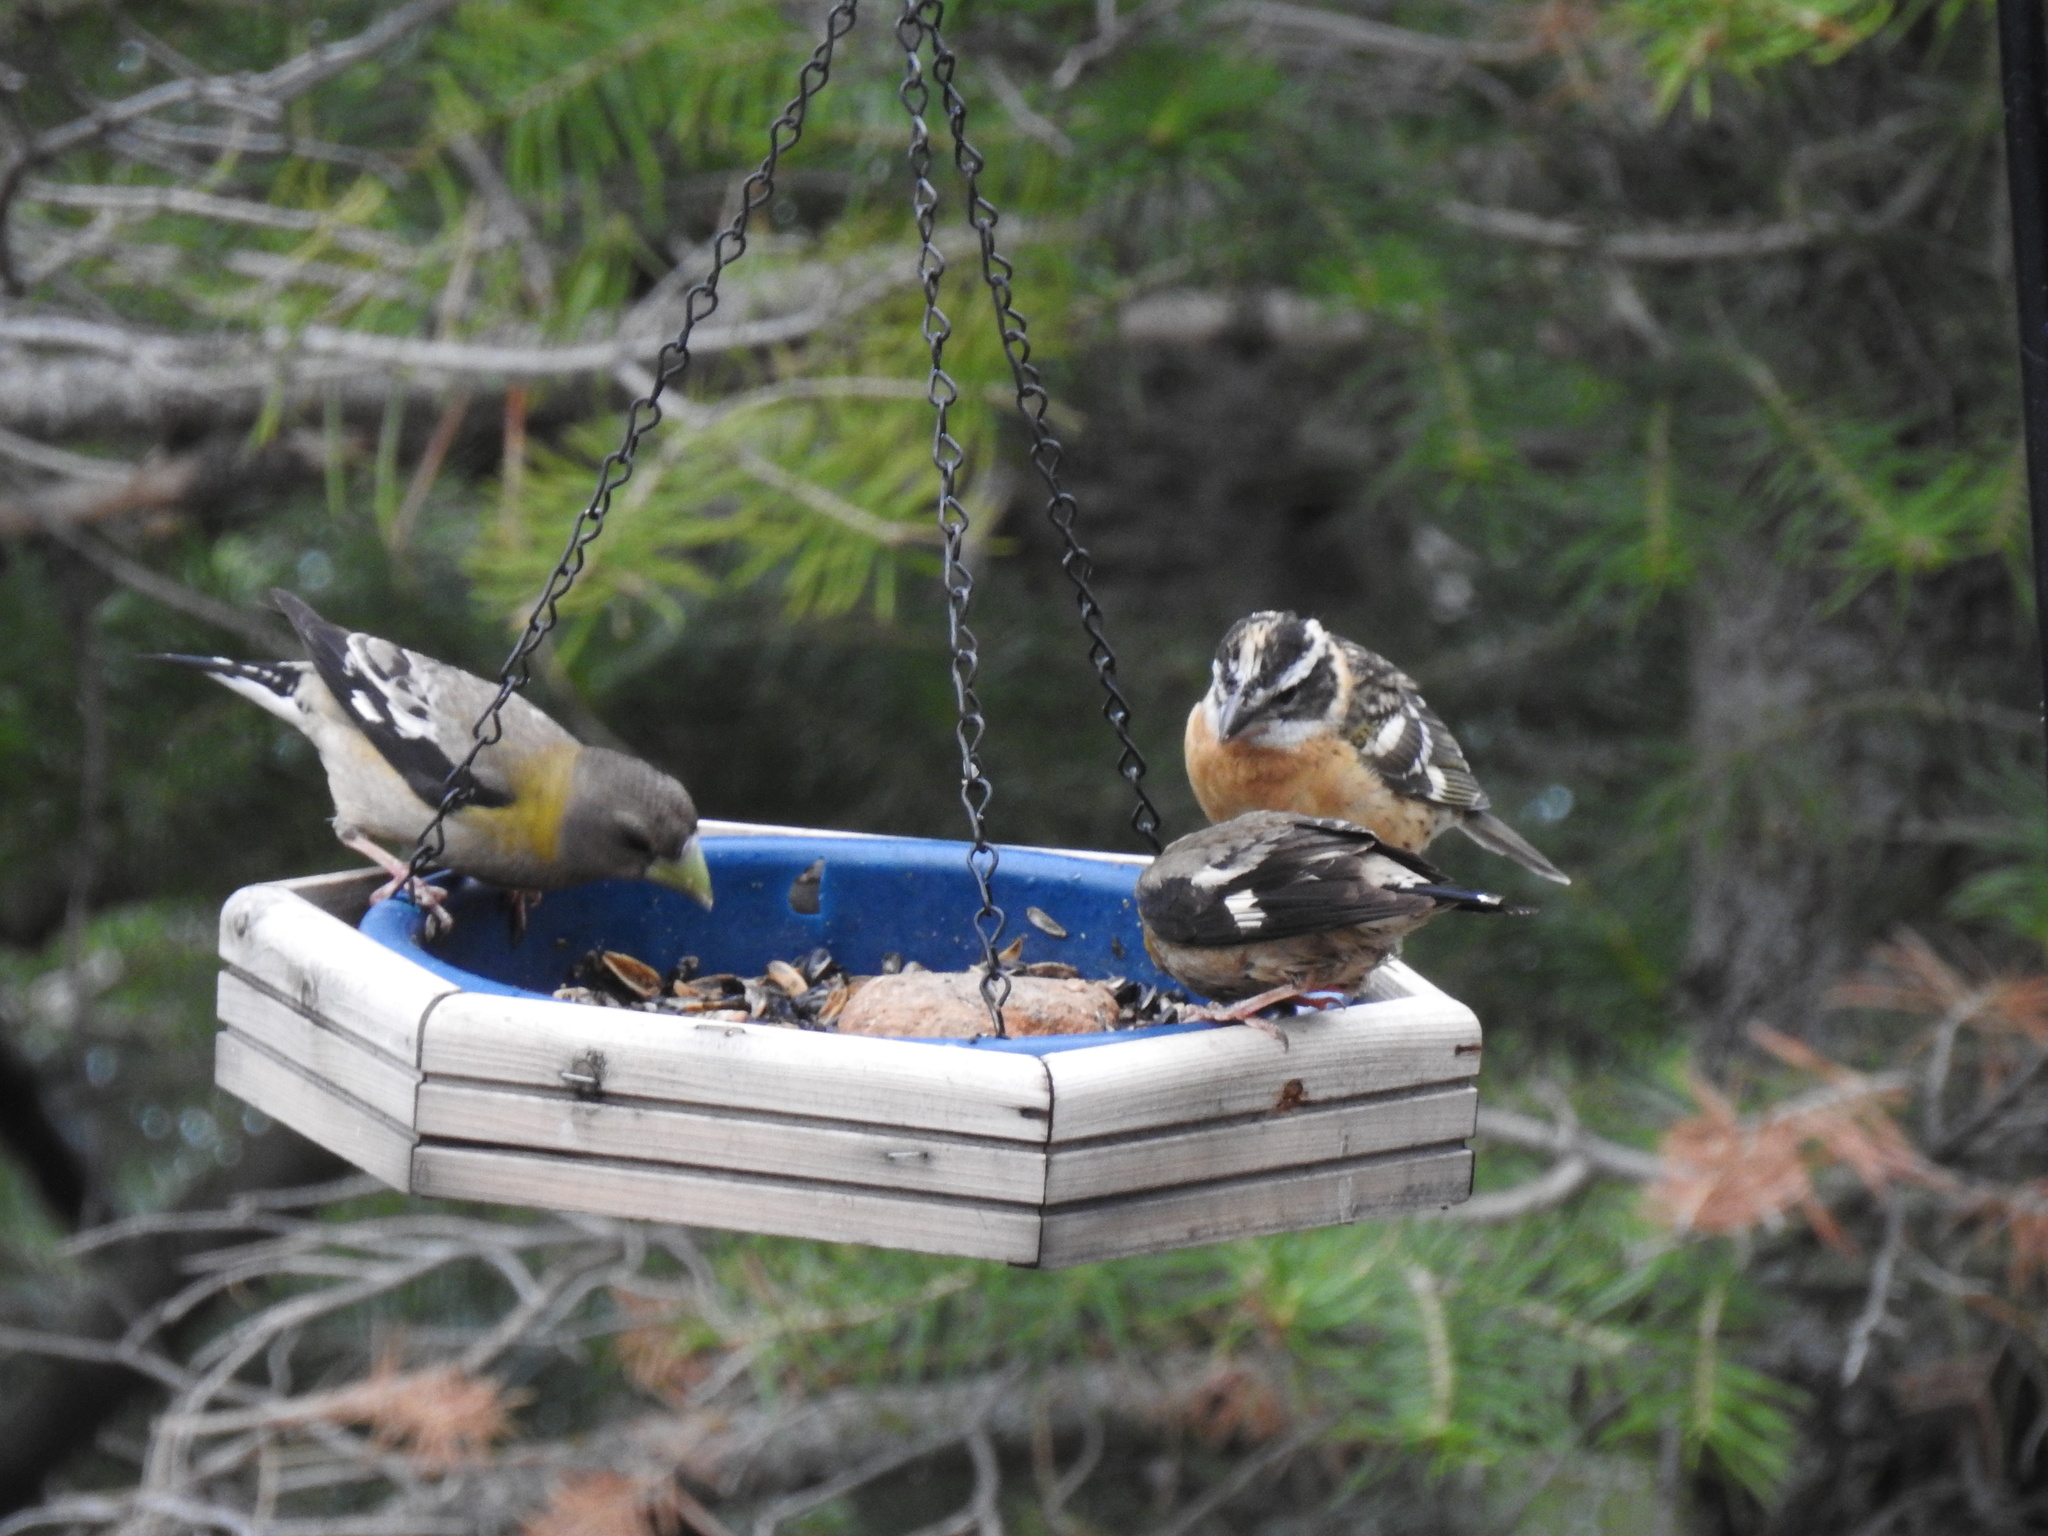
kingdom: Animalia
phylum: Chordata
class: Aves
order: Passeriformes
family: Fringillidae
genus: Hesperiphona
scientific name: Hesperiphona vespertina
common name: Evening grosbeak
